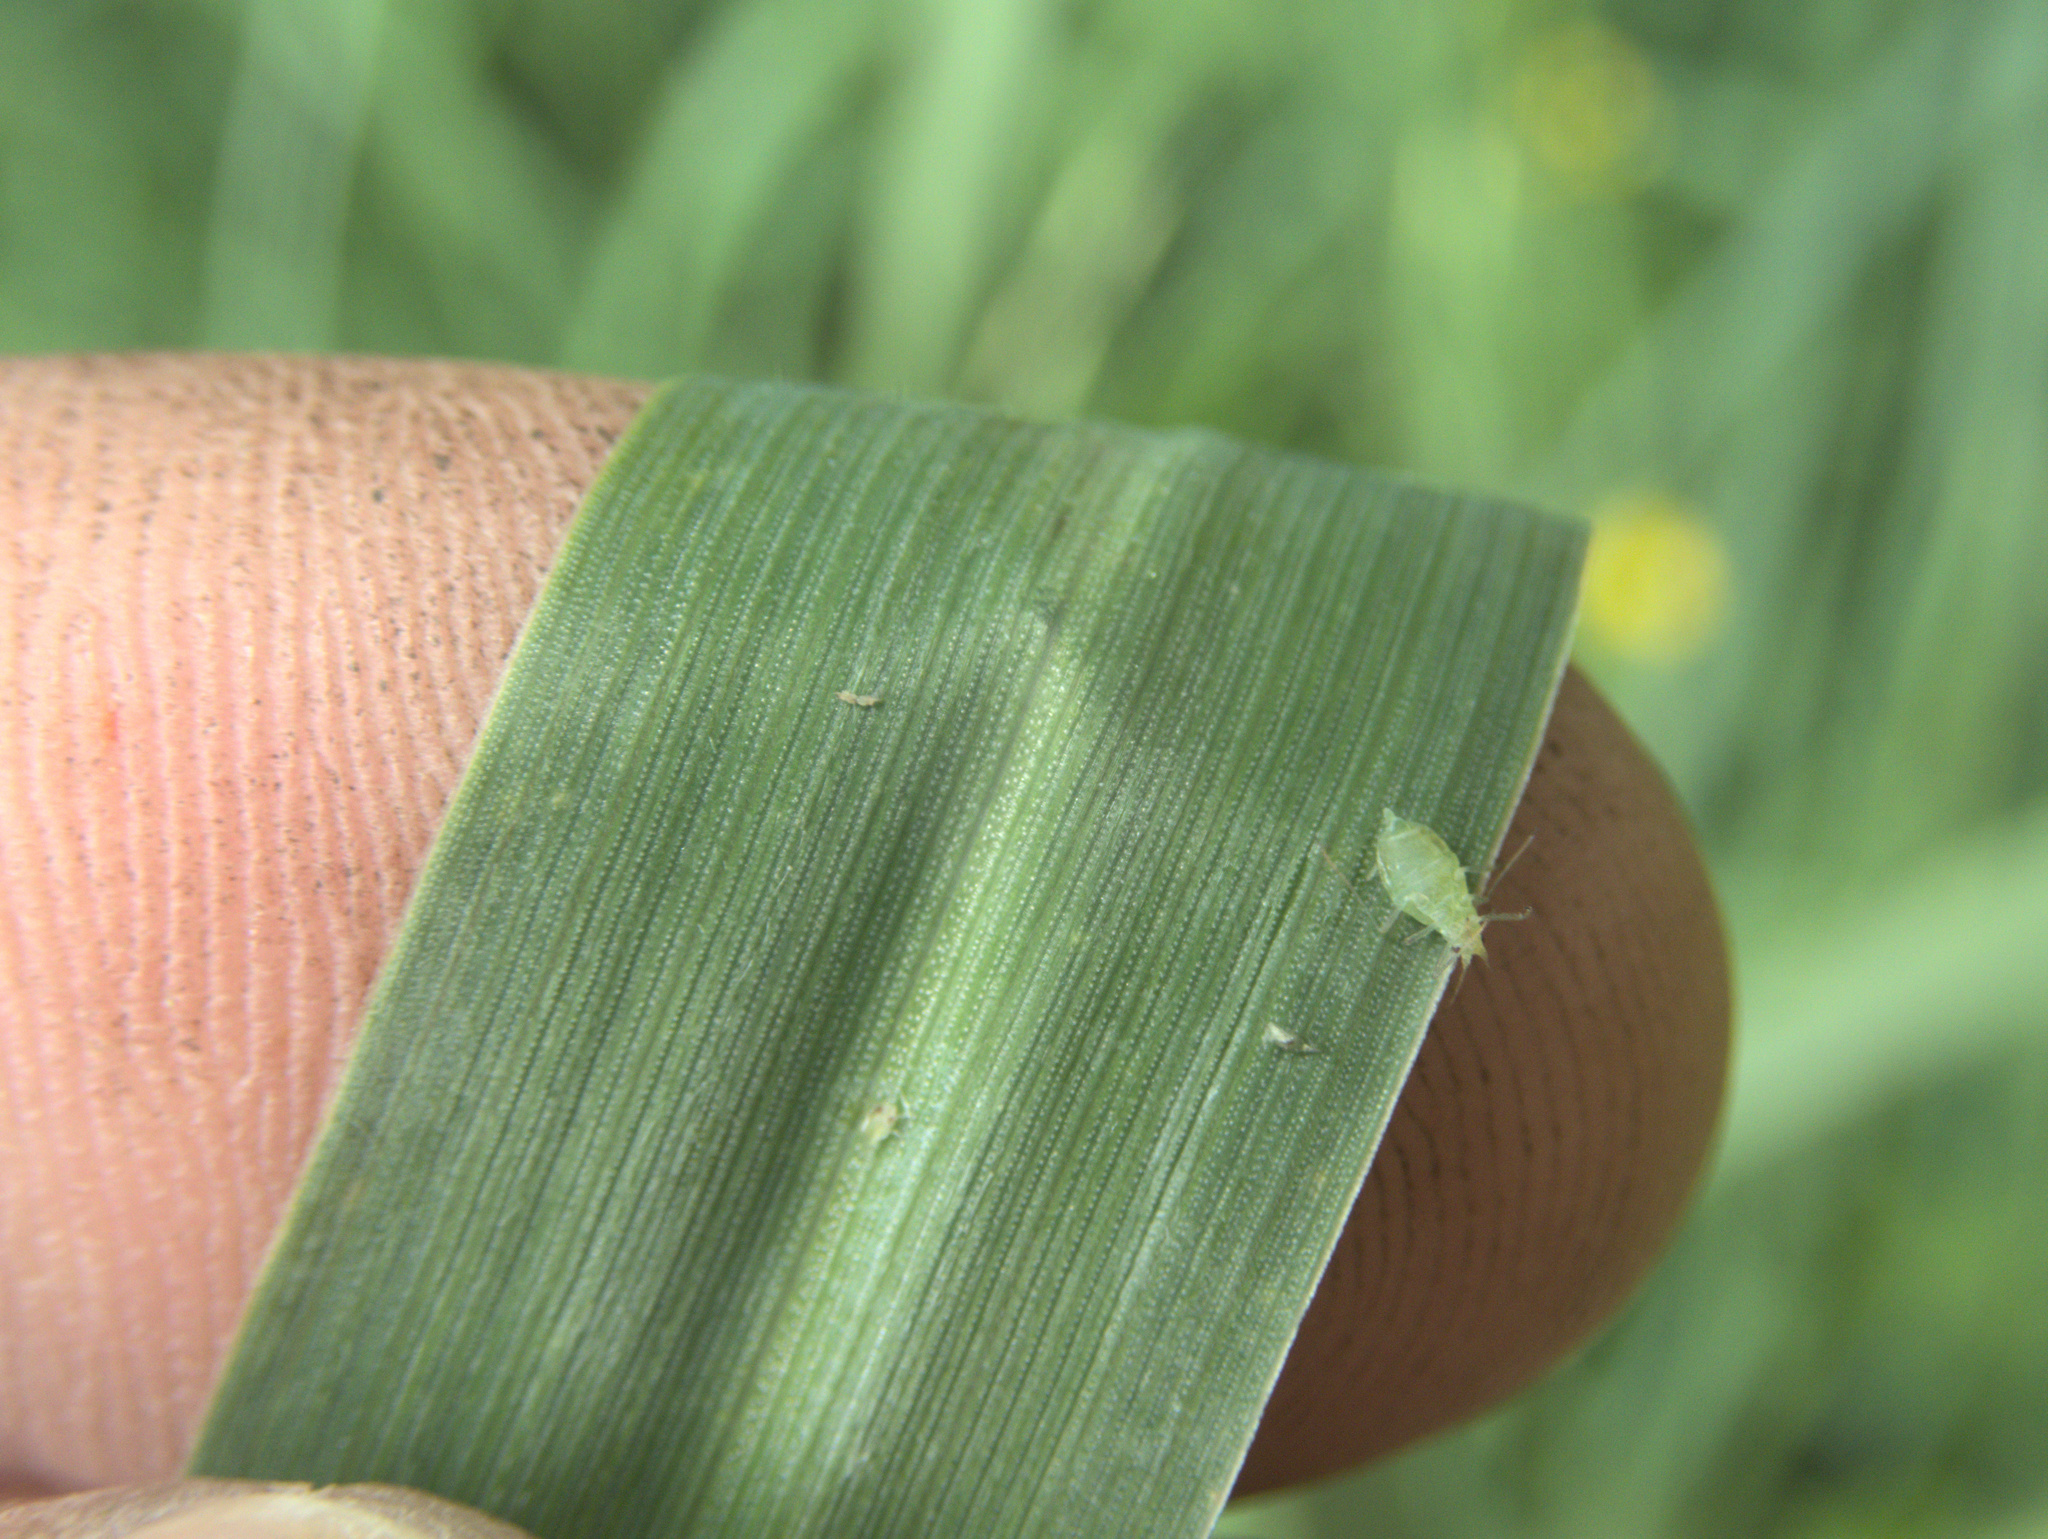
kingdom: Plantae
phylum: Tracheophyta
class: Liliopsida
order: Poales
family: Poaceae
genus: Bromus
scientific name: Bromus catharticus
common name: Rescuegrass
